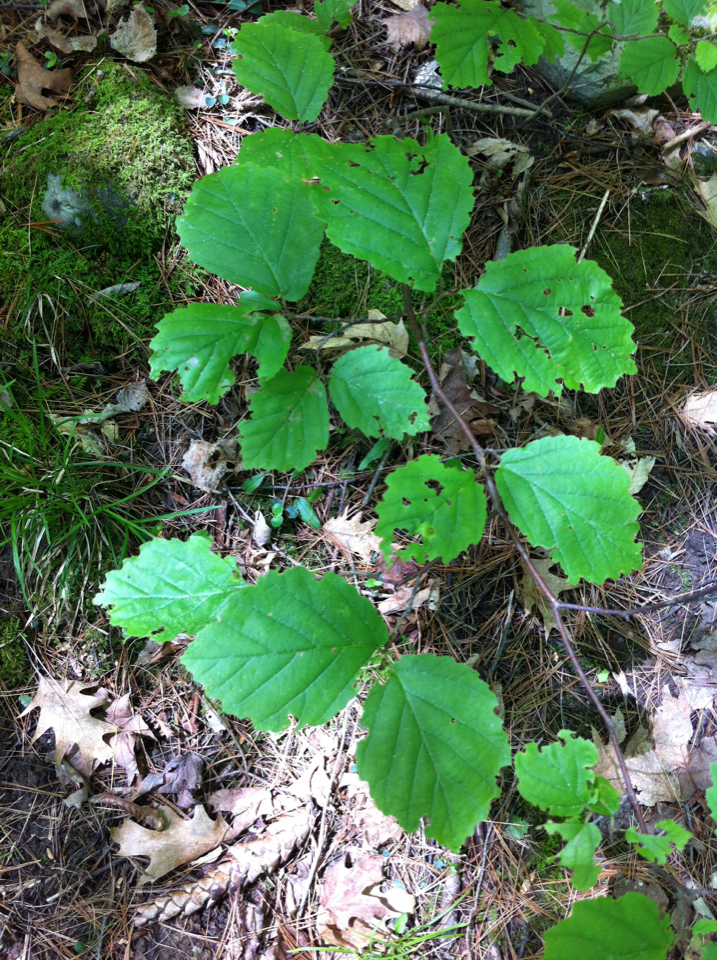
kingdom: Plantae
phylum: Tracheophyta
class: Magnoliopsida
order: Saxifragales
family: Hamamelidaceae
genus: Hamamelis
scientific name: Hamamelis virginiana
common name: Witch-hazel
